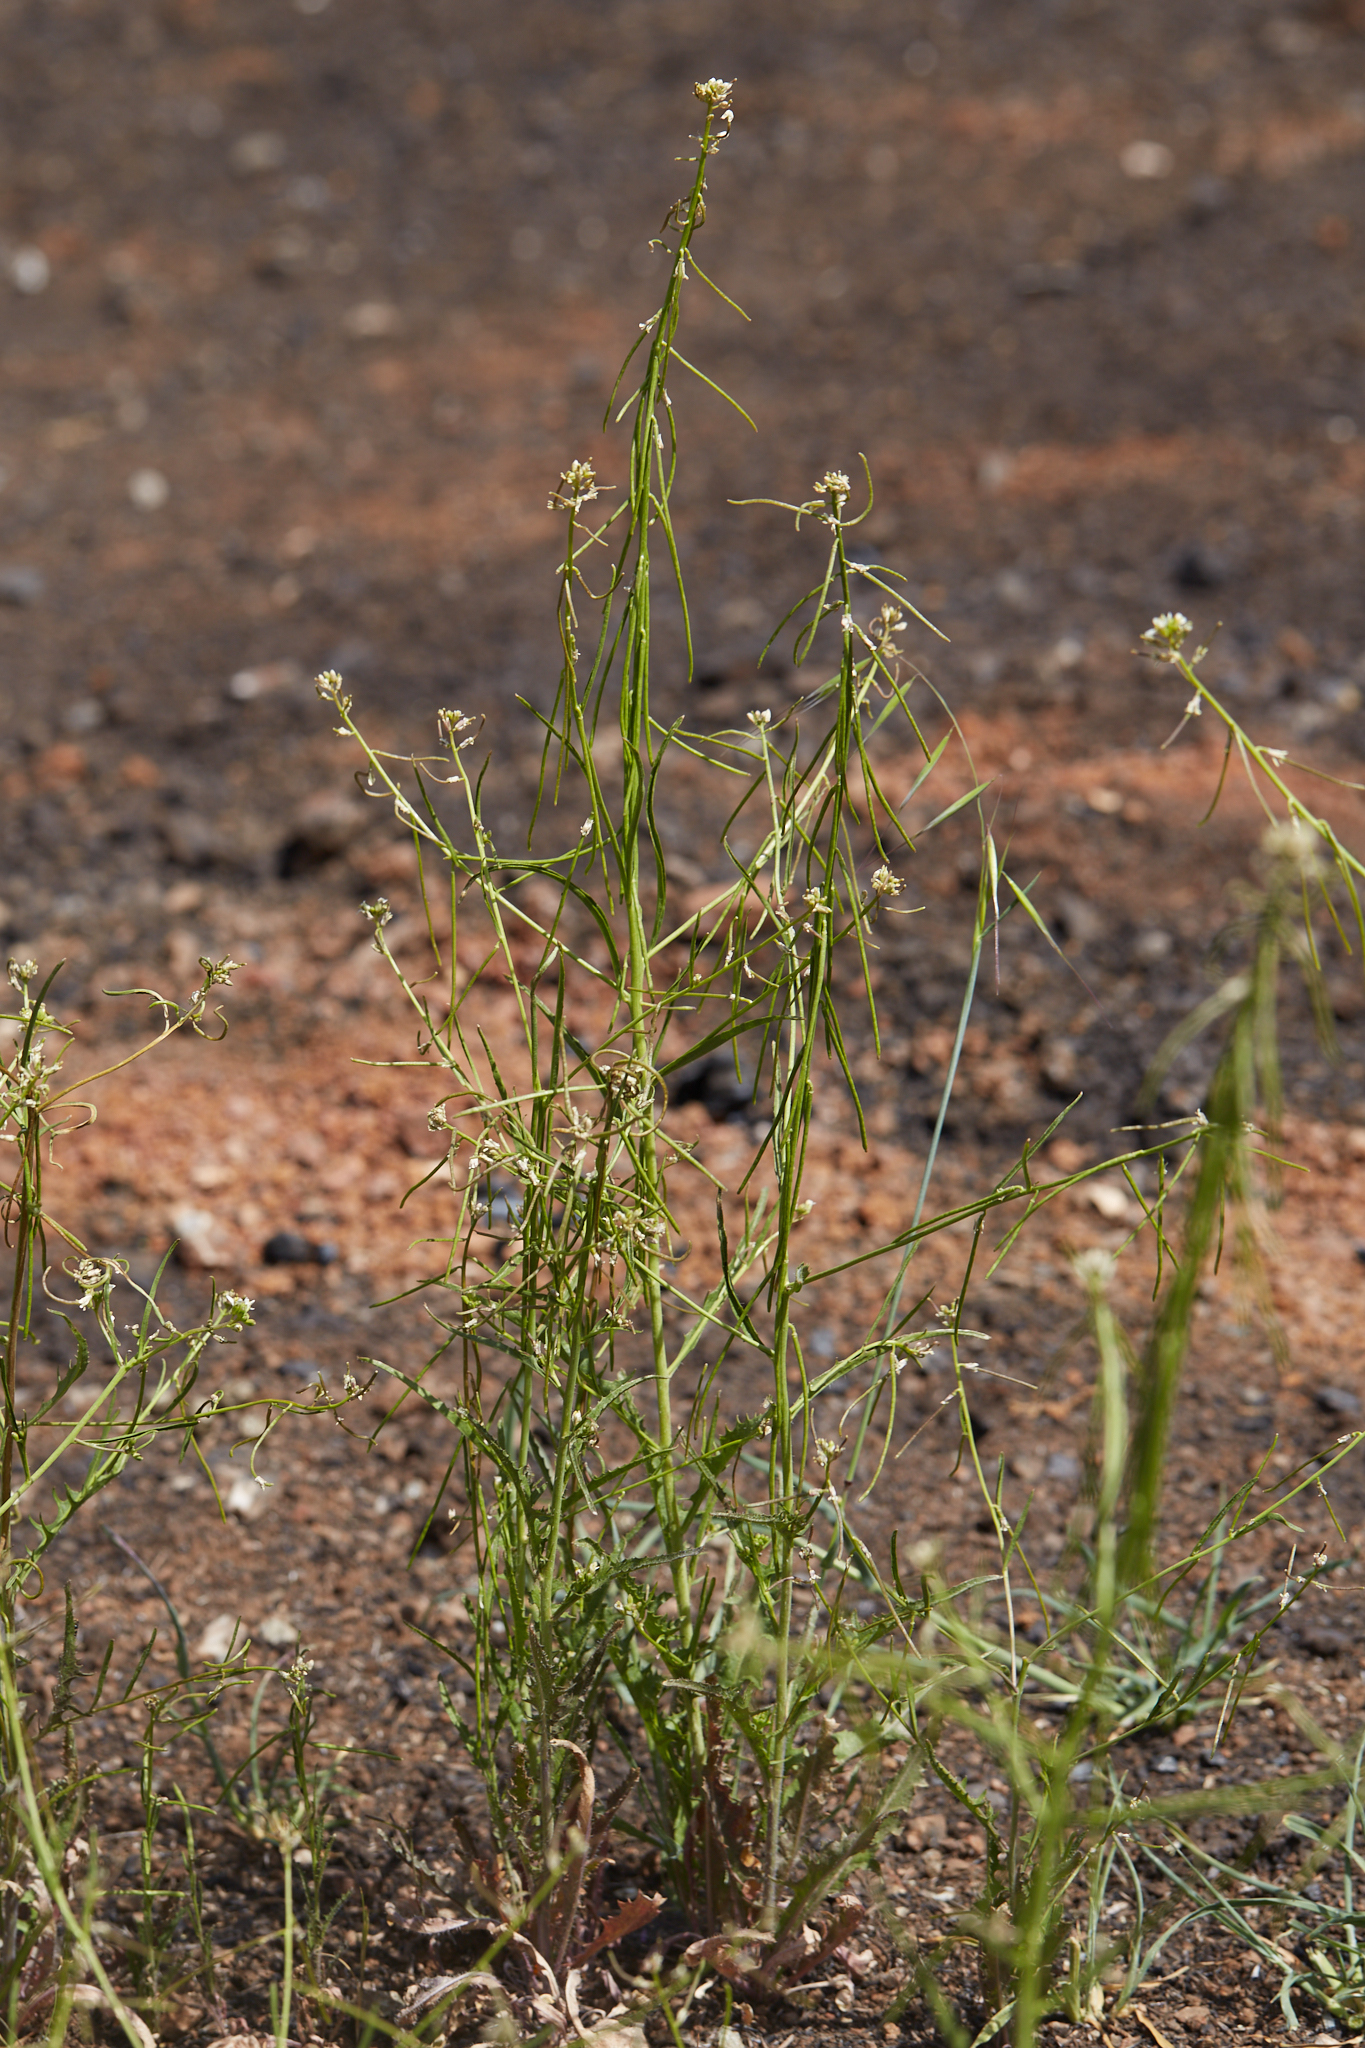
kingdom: Plantae
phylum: Tracheophyta
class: Magnoliopsida
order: Brassicales
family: Brassicaceae
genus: Streptanthus
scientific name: Streptanthus lasiophyllus
